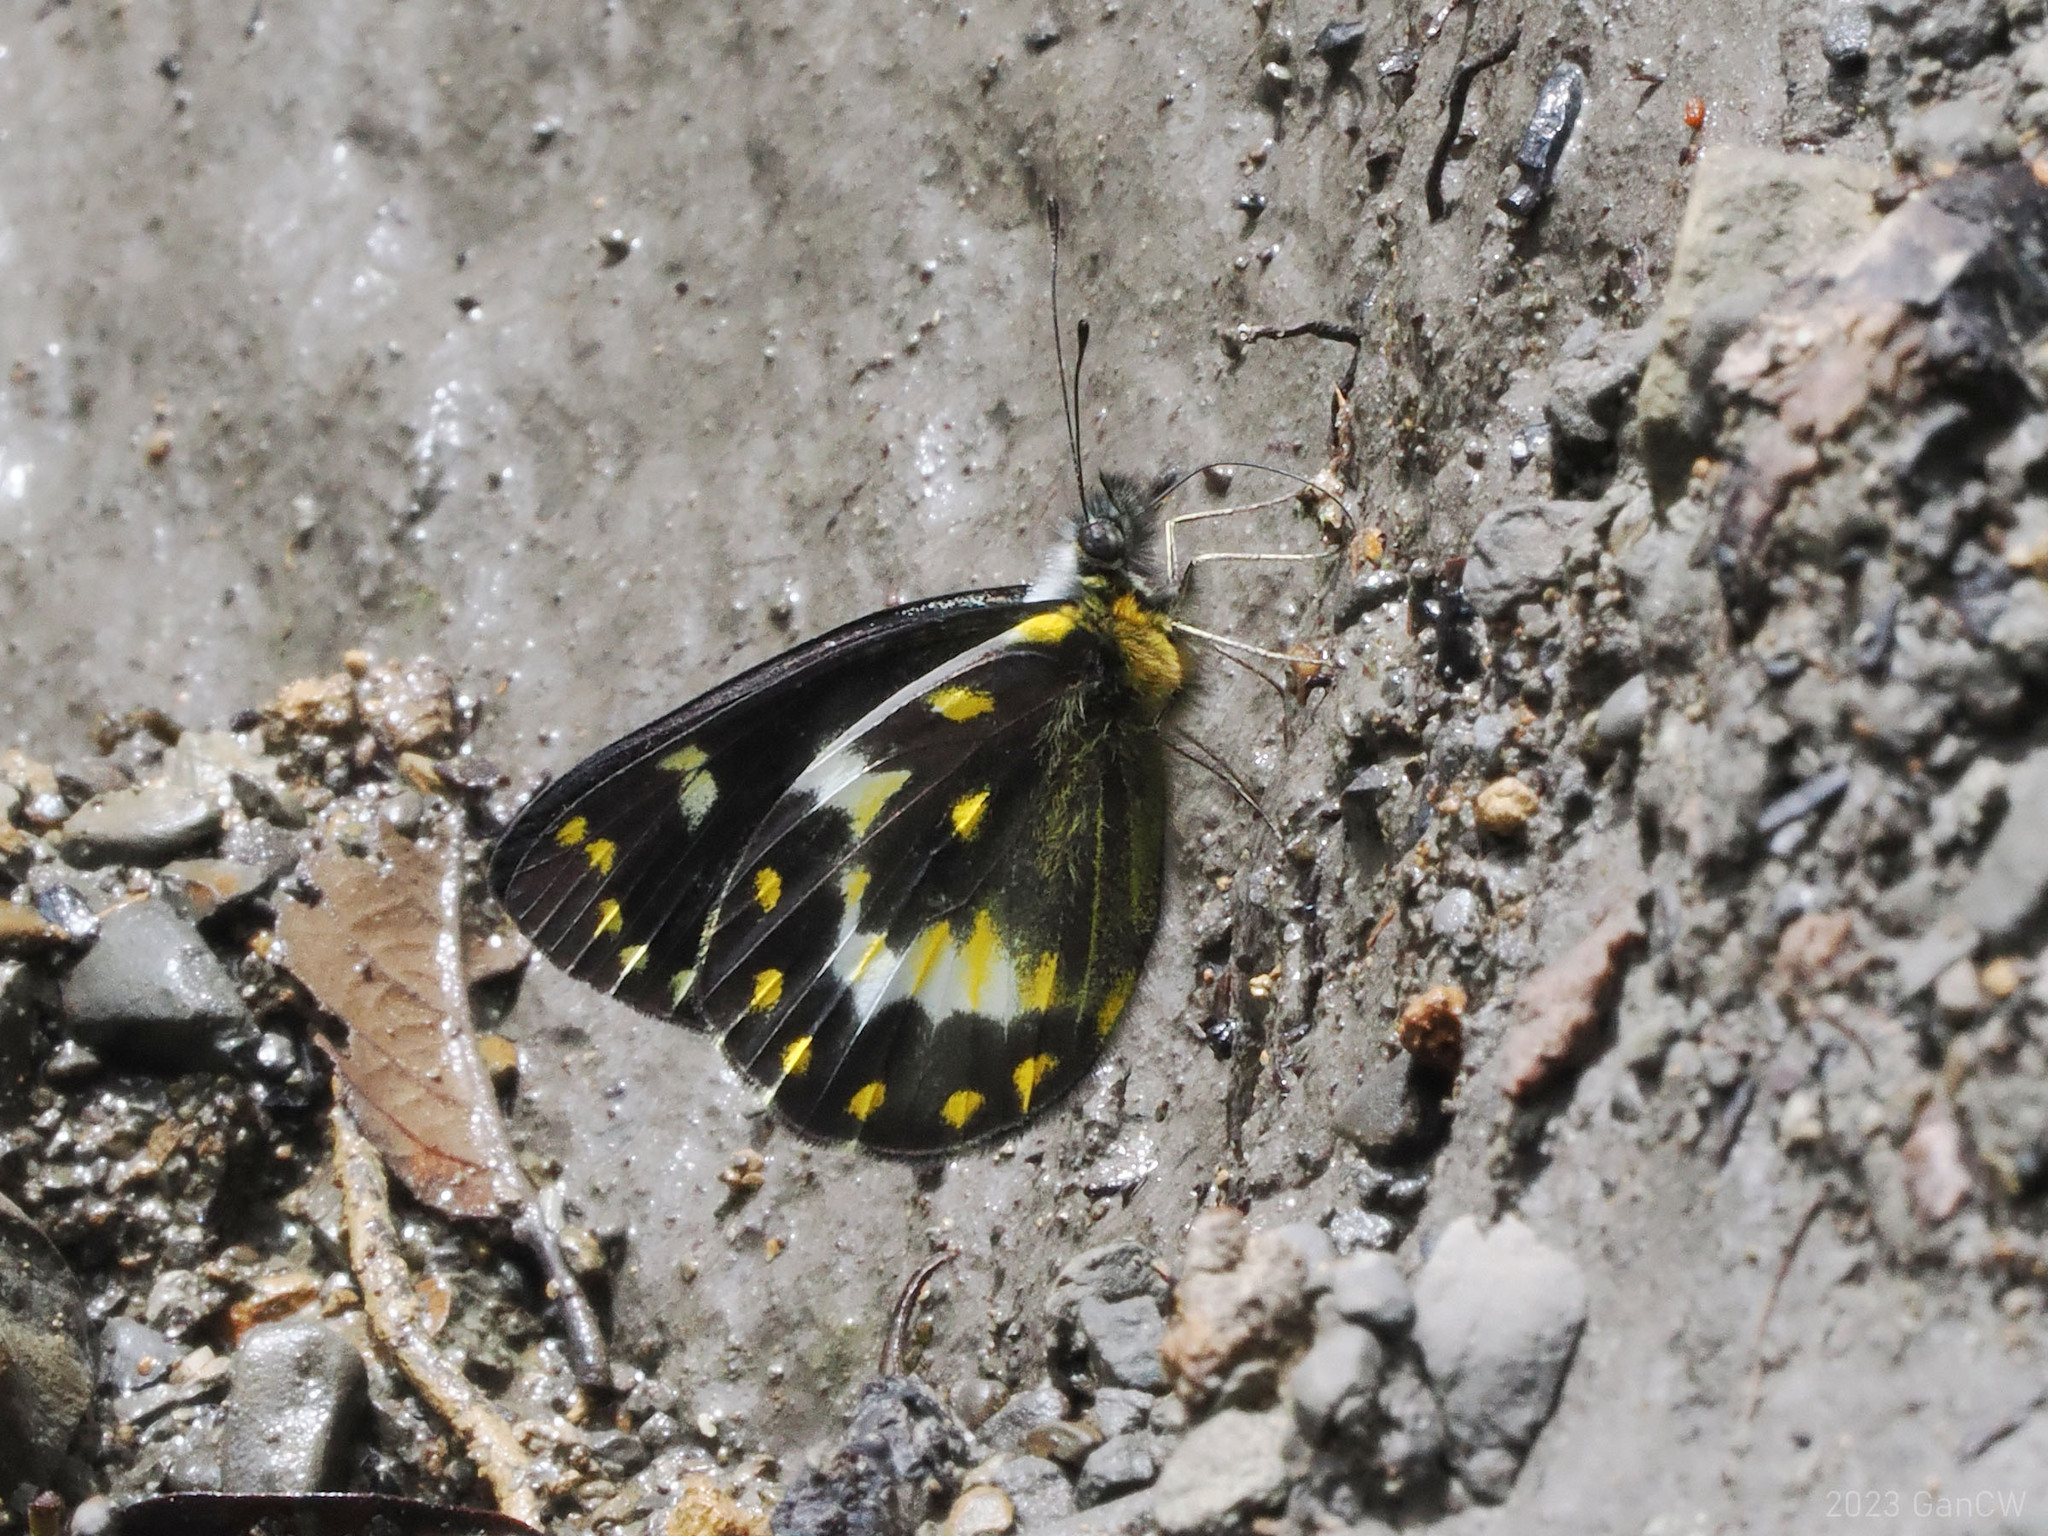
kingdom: Animalia
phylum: Arthropoda
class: Insecta
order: Lepidoptera
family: Pieridae
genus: Delias
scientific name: Delias oktanglap
